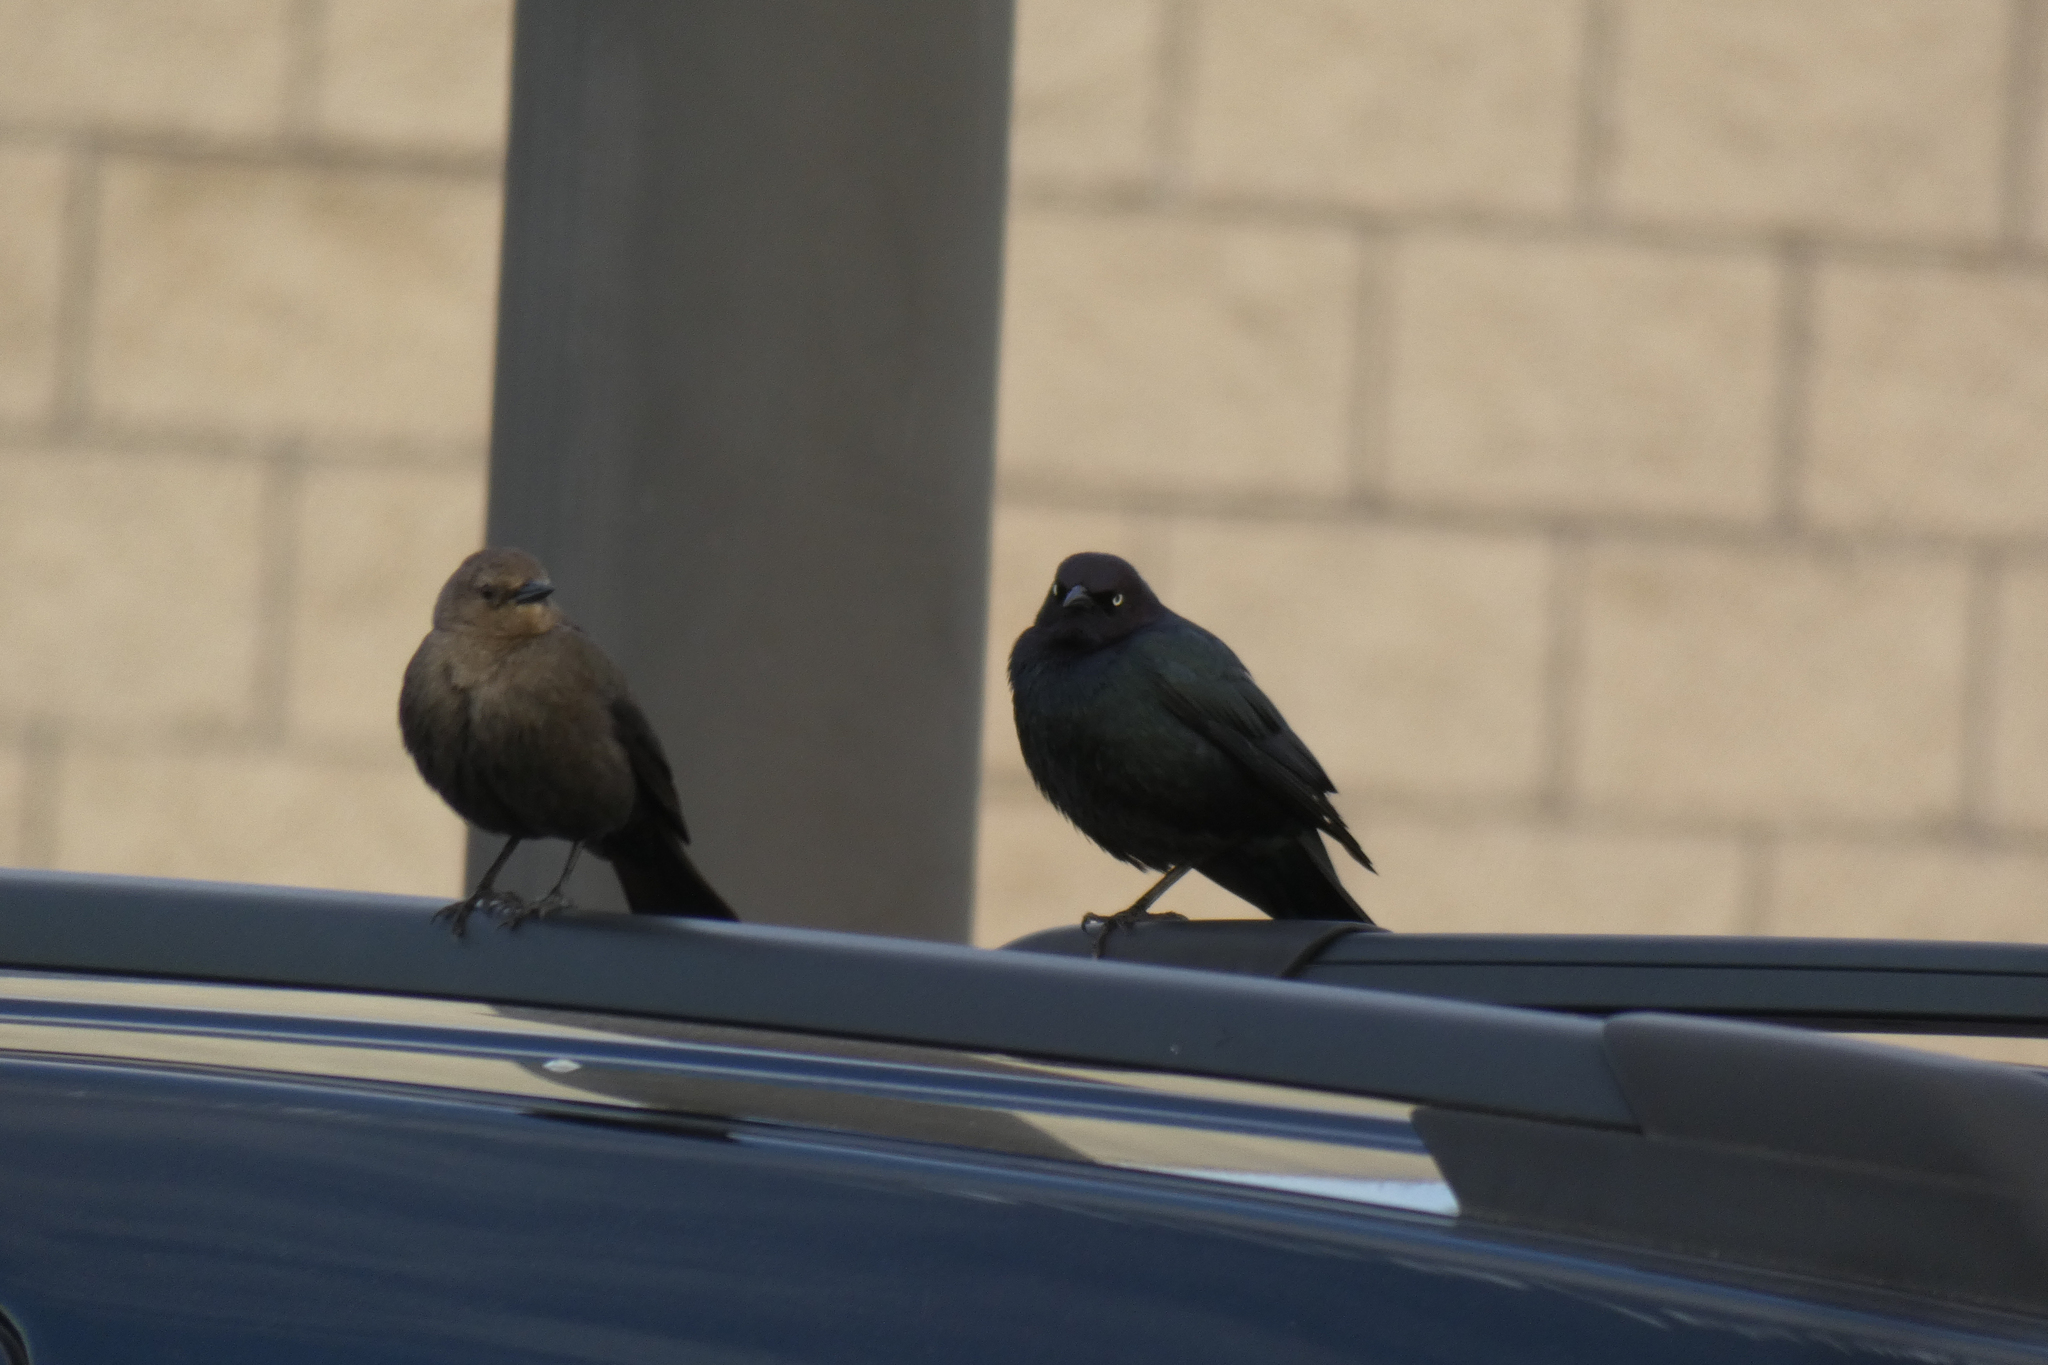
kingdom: Animalia
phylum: Chordata
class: Aves
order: Passeriformes
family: Icteridae
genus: Euphagus
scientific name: Euphagus cyanocephalus
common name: Brewer's blackbird
